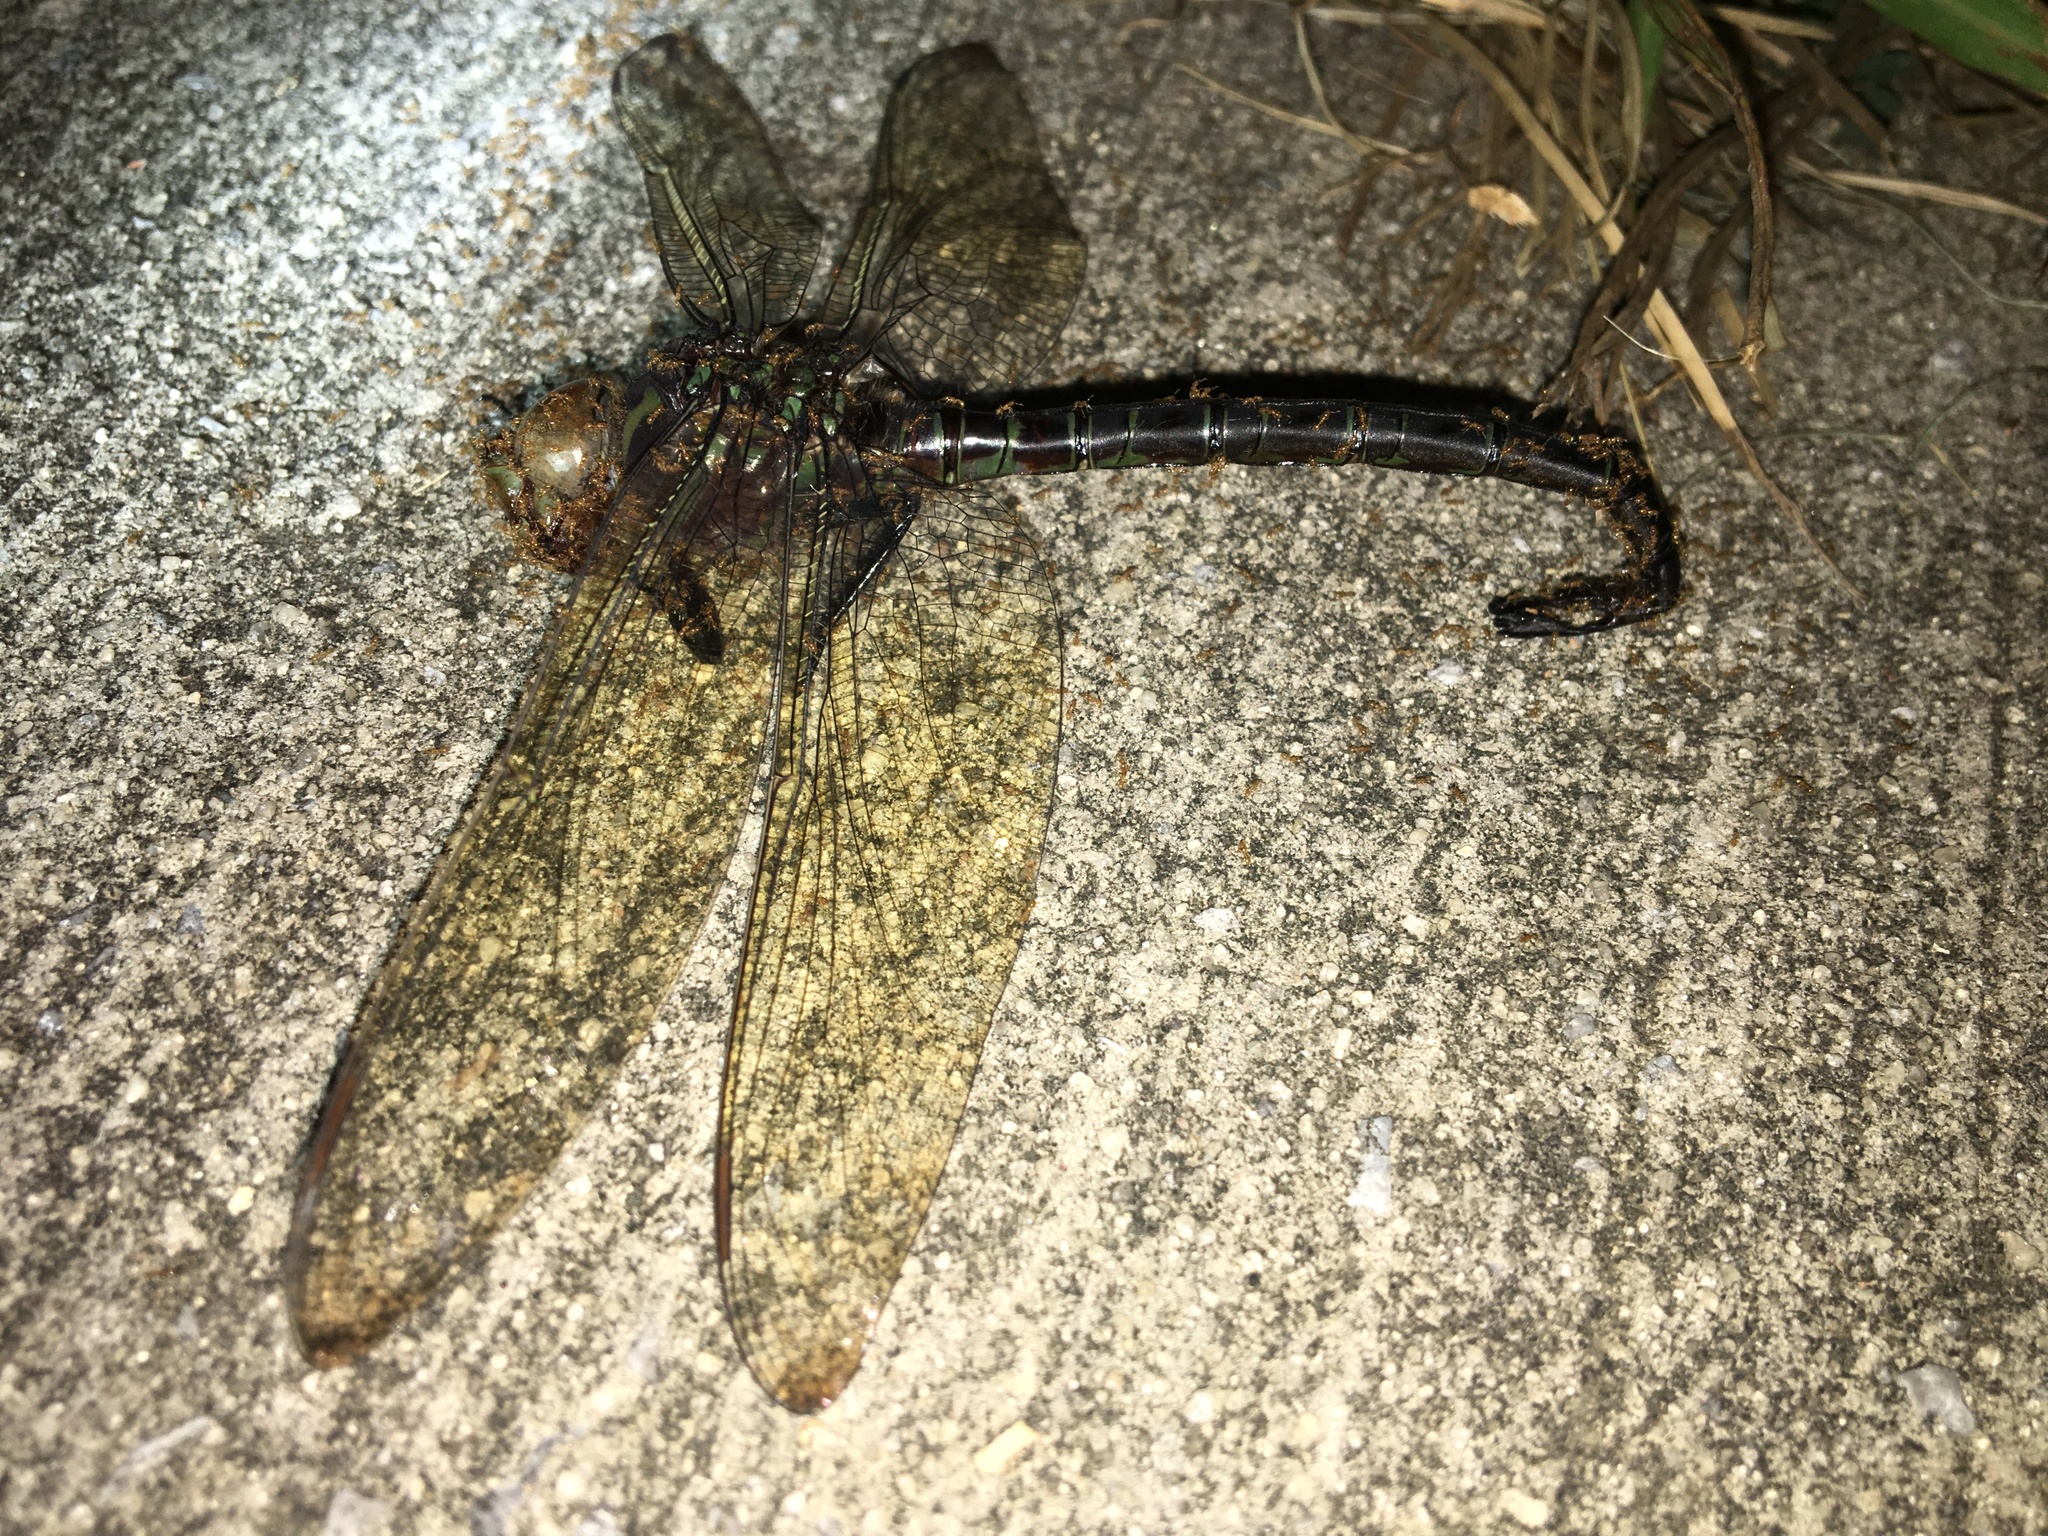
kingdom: Animalia
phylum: Arthropoda
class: Insecta
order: Odonata
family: Aeshnidae
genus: Epiaeschna
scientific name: Epiaeschna heros
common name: Swamp darner
